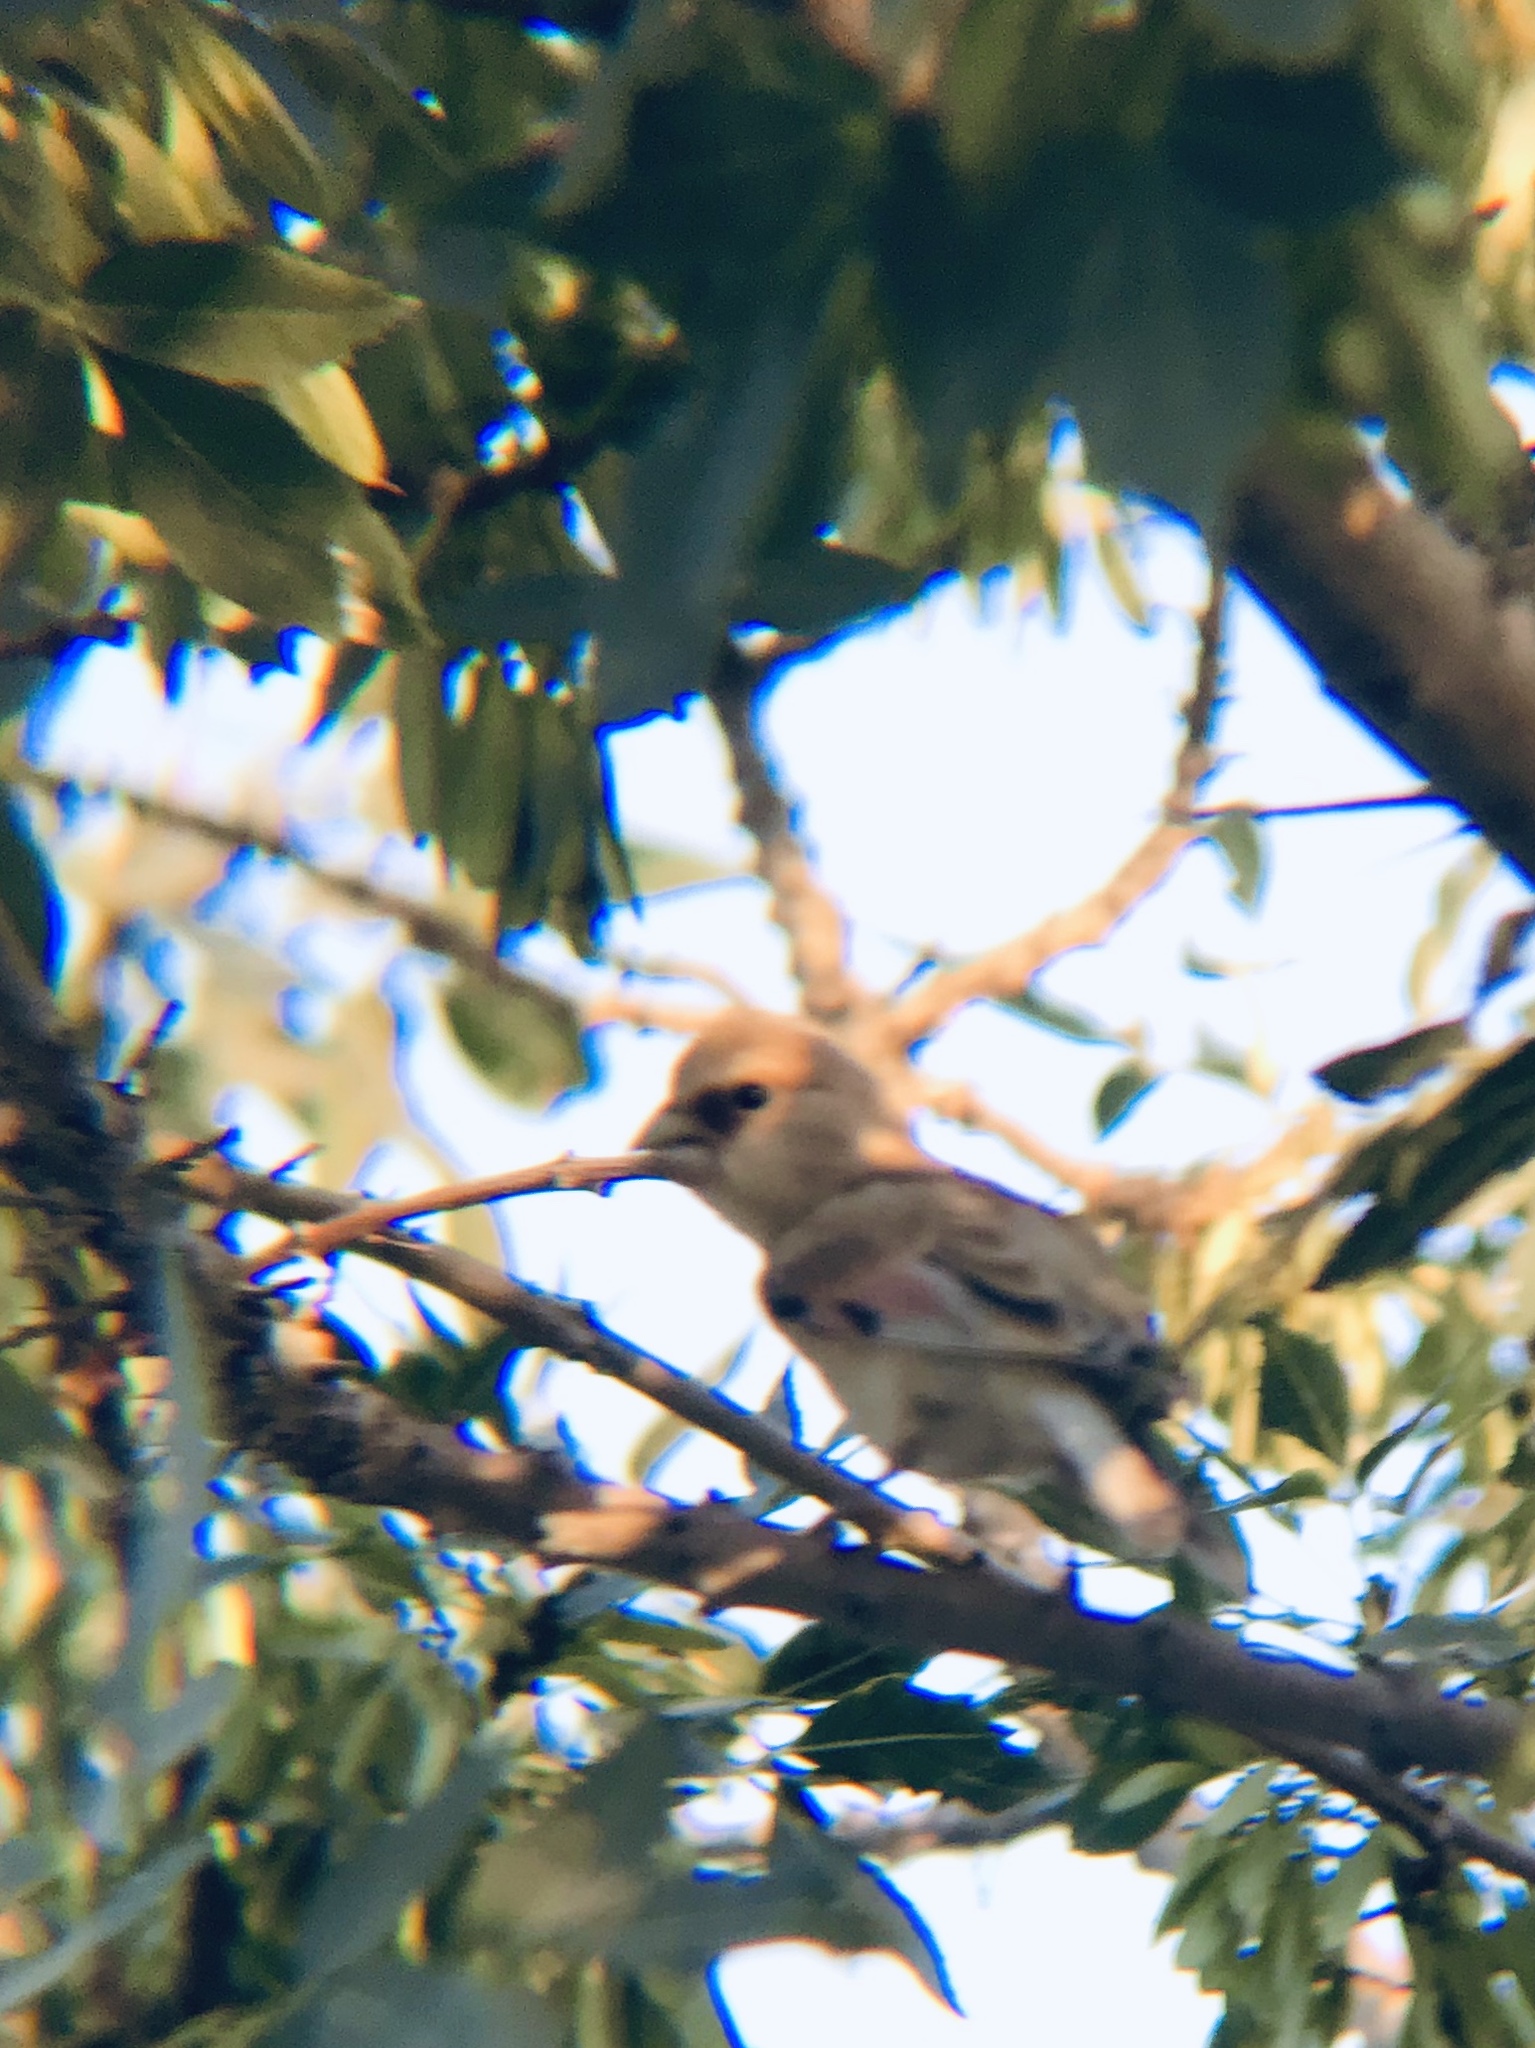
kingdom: Animalia
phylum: Chordata
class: Aves
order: Passeriformes
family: Fringillidae
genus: Rhodospiza
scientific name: Rhodospiza obsoleta
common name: Desert finch
